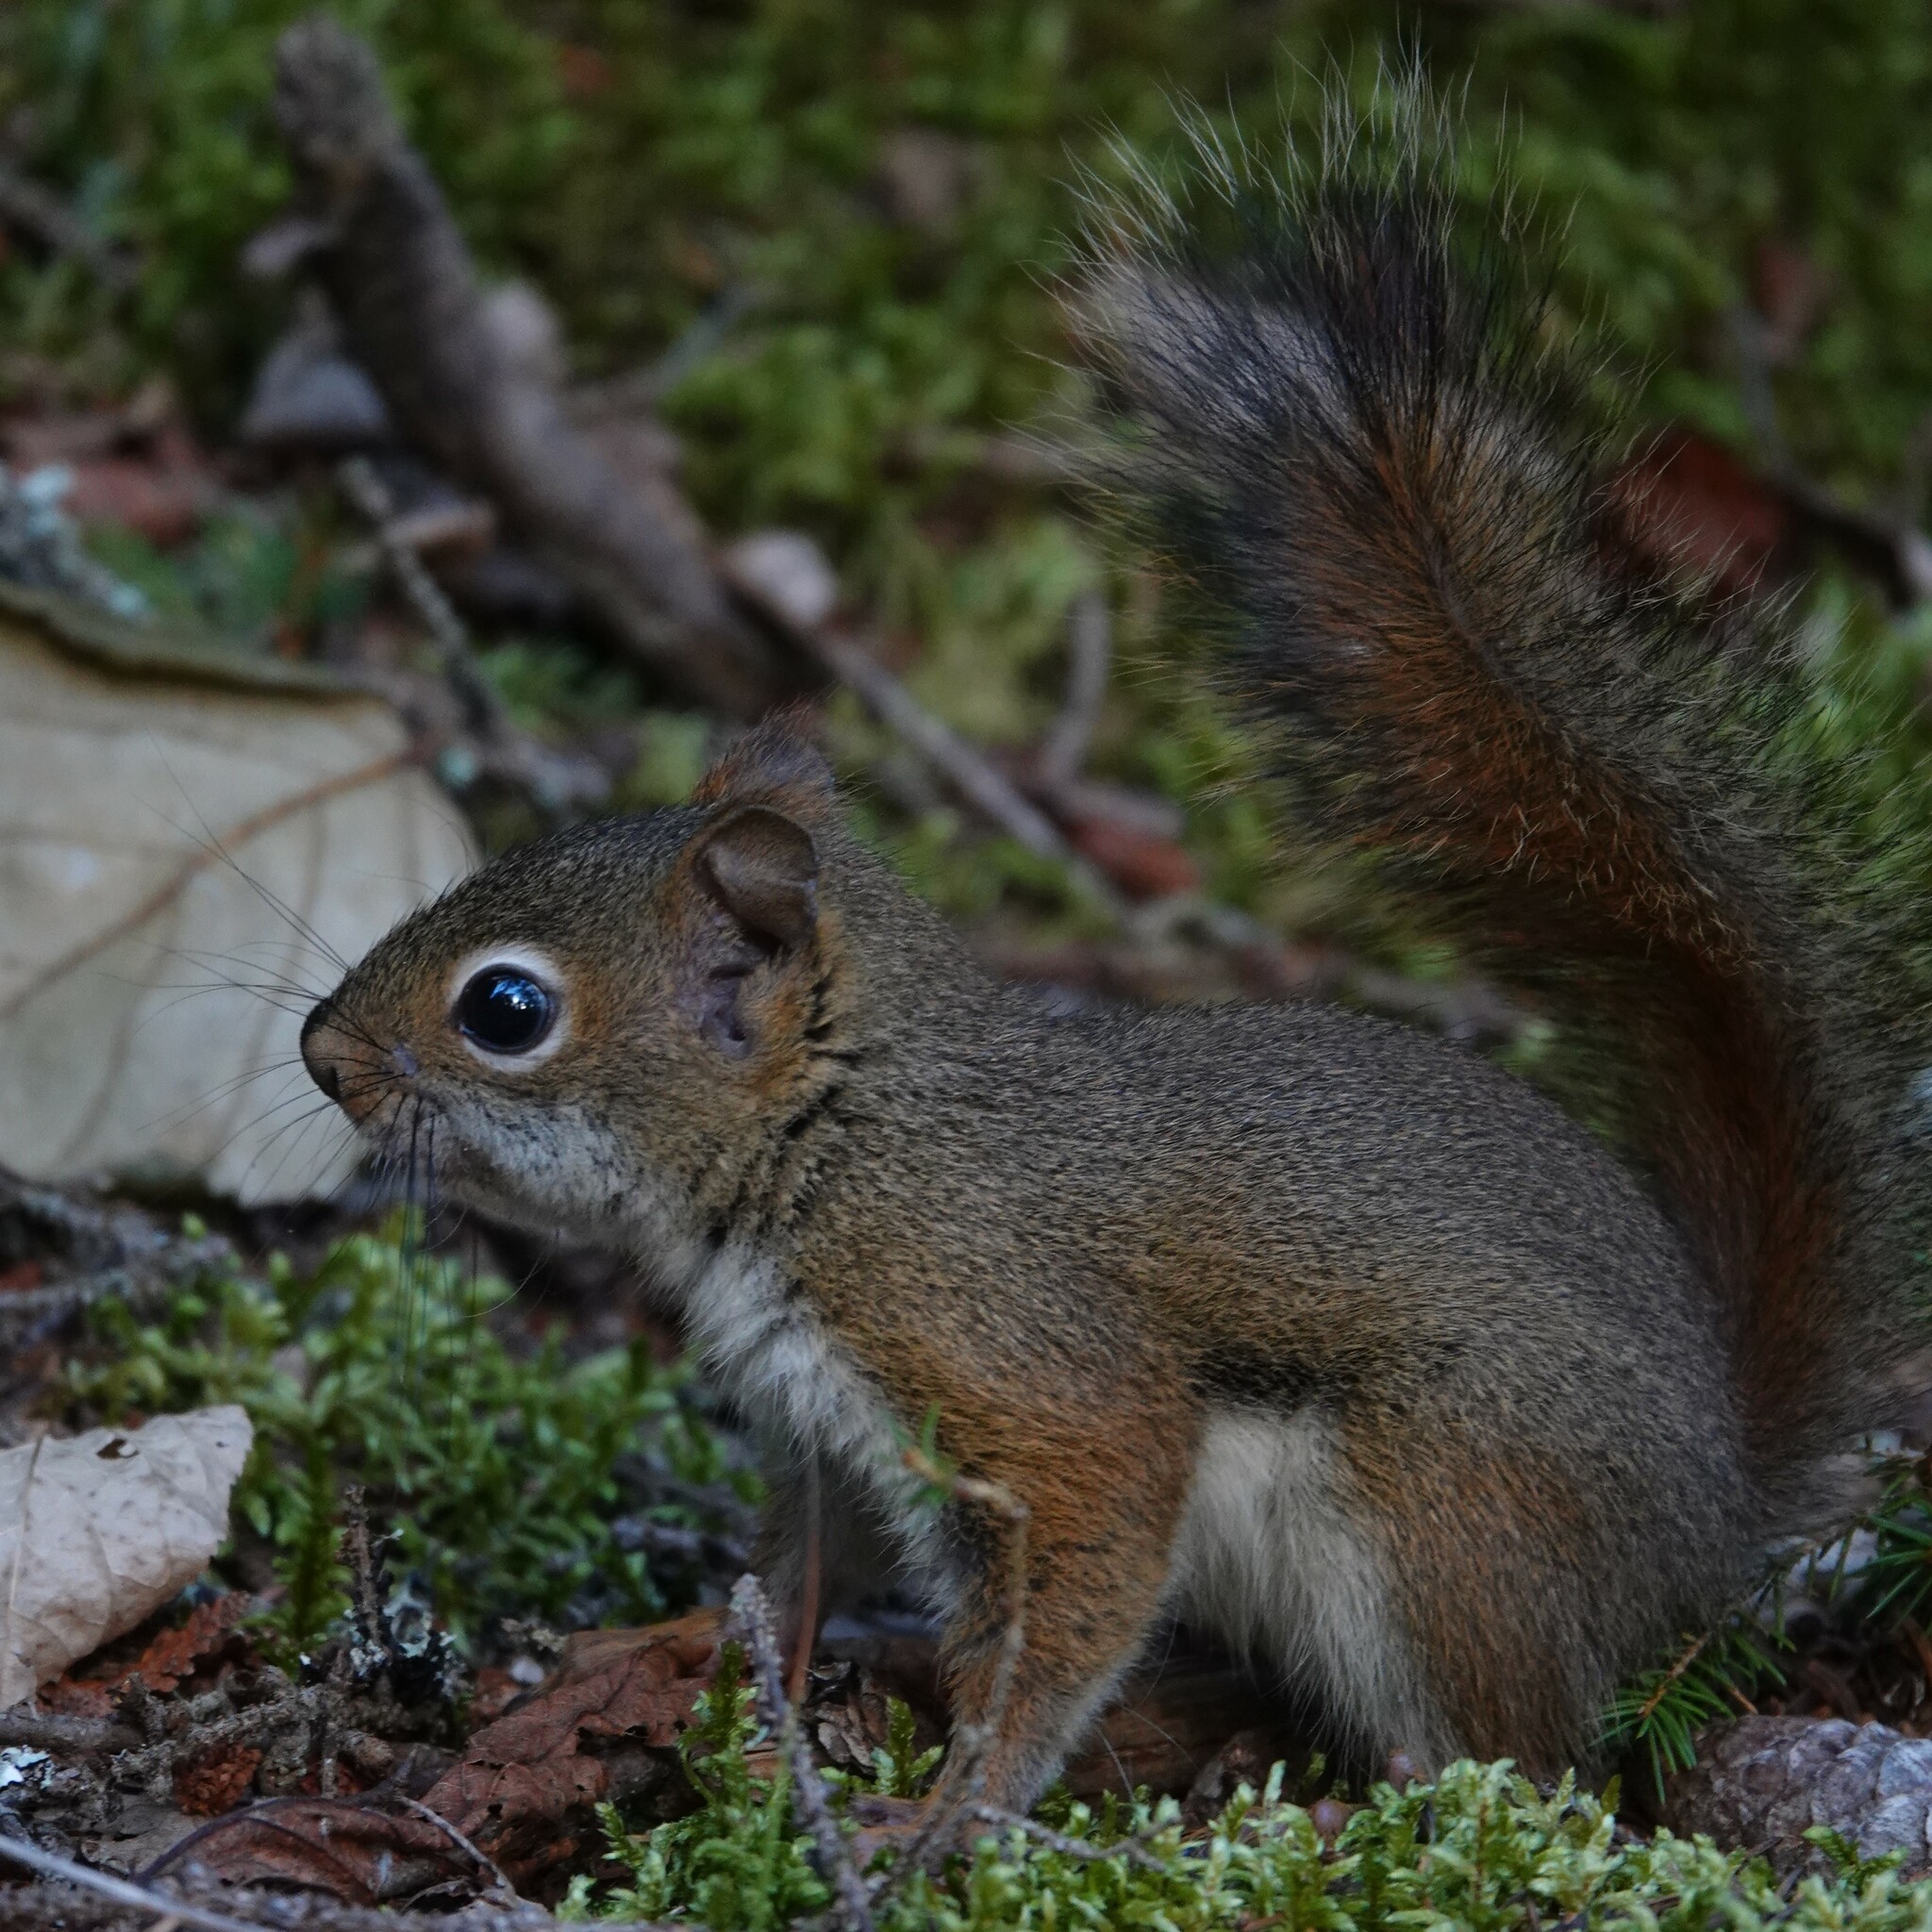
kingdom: Animalia
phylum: Chordata
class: Mammalia
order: Rodentia
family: Sciuridae
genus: Tamiasciurus
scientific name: Tamiasciurus hudsonicus
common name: Red squirrel
